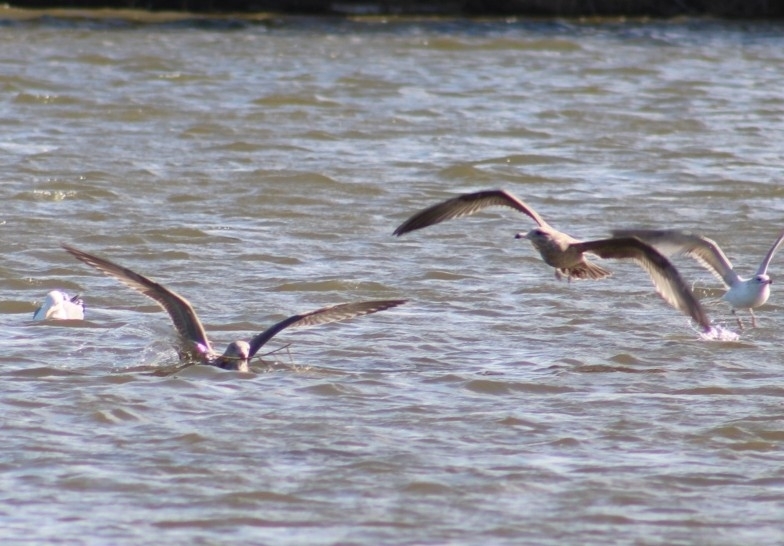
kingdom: Animalia
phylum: Chordata
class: Aves
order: Charadriiformes
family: Laridae
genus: Larus
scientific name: Larus californicus
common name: California gull
